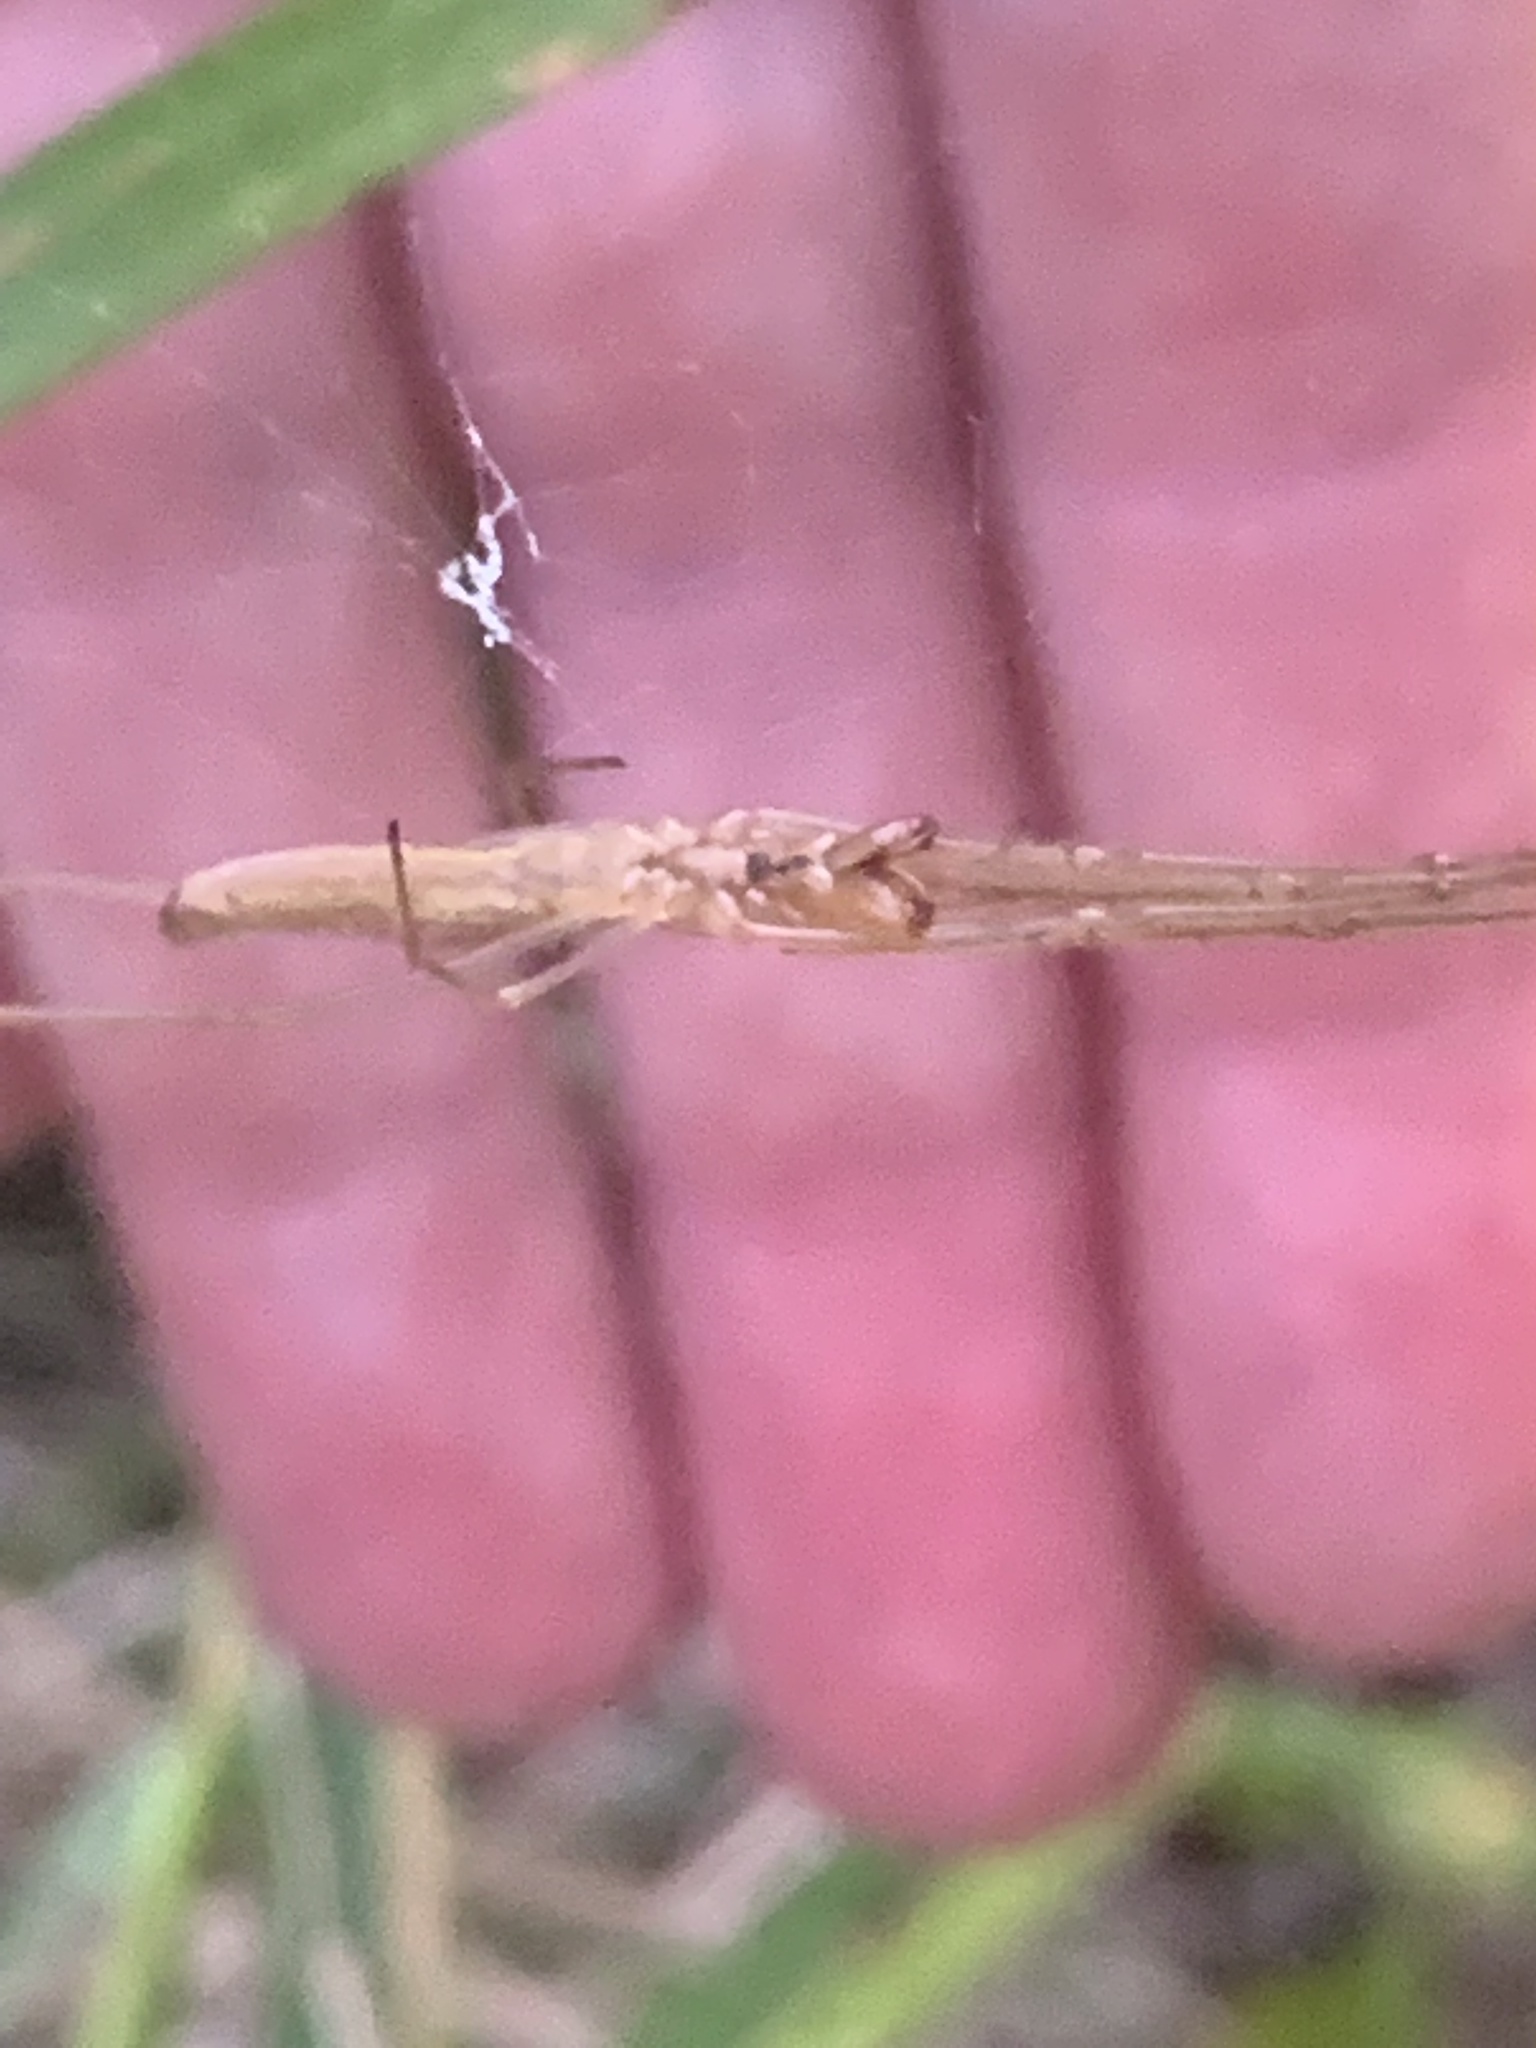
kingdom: Animalia
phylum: Arthropoda
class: Arachnida
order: Araneae
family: Tetragnathidae
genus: Tetragnatha
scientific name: Tetragnatha
